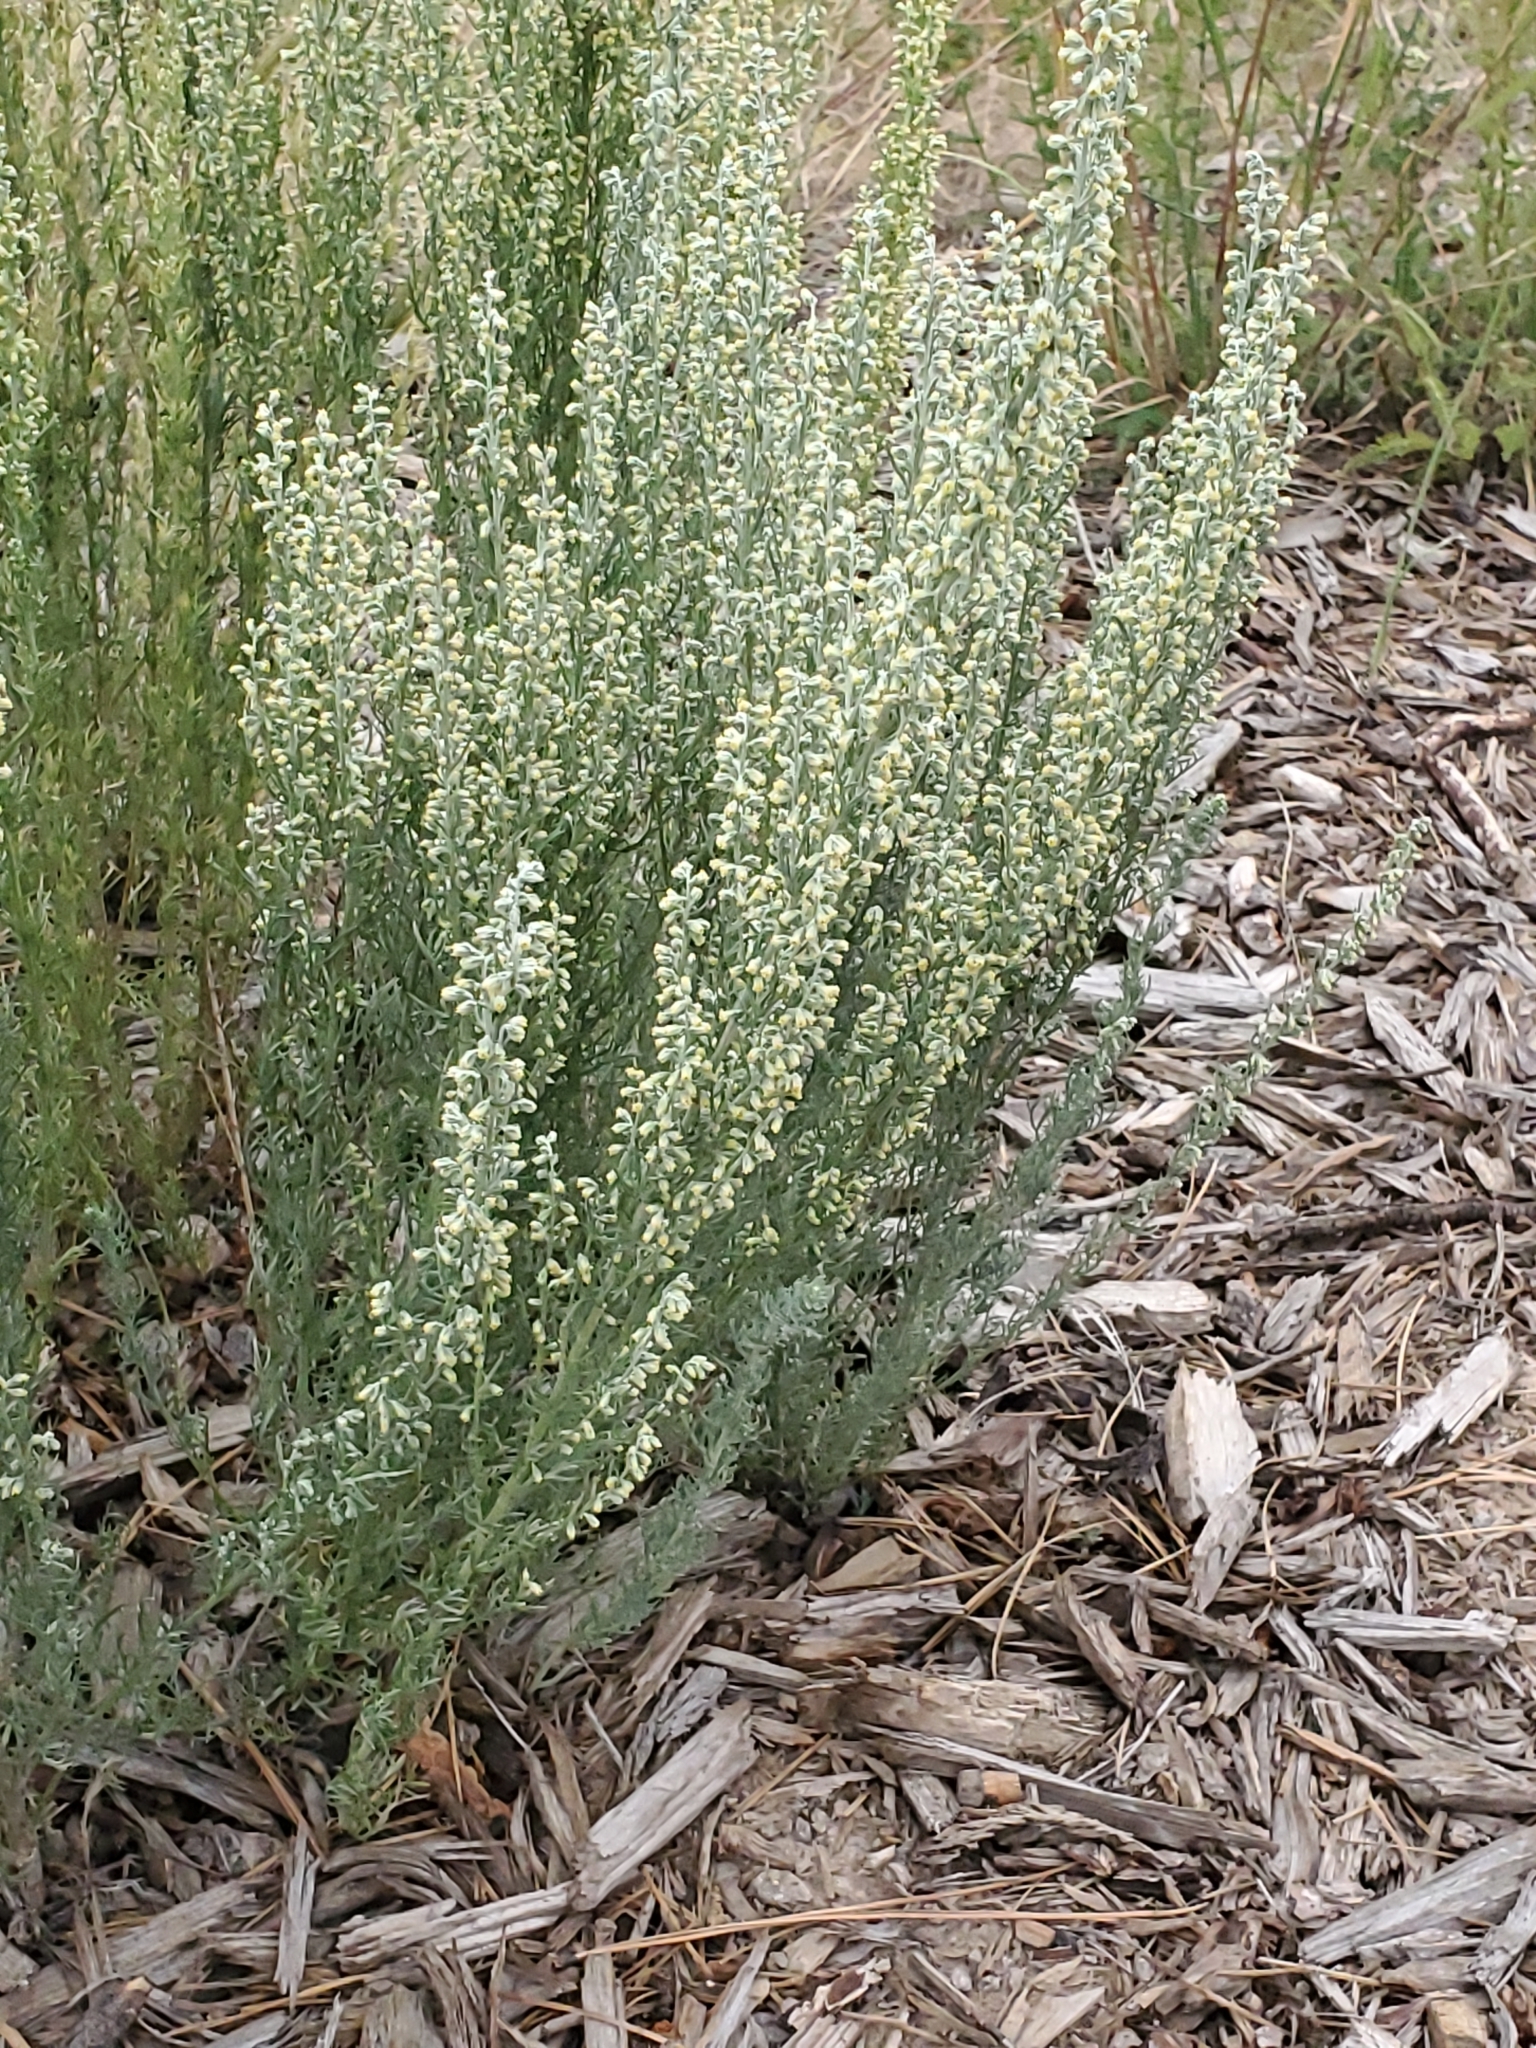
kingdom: Plantae
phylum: Tracheophyta
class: Magnoliopsida
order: Asterales
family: Asteraceae
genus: Artemisia
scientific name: Artemisia carruthii
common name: Carruth wormwood
